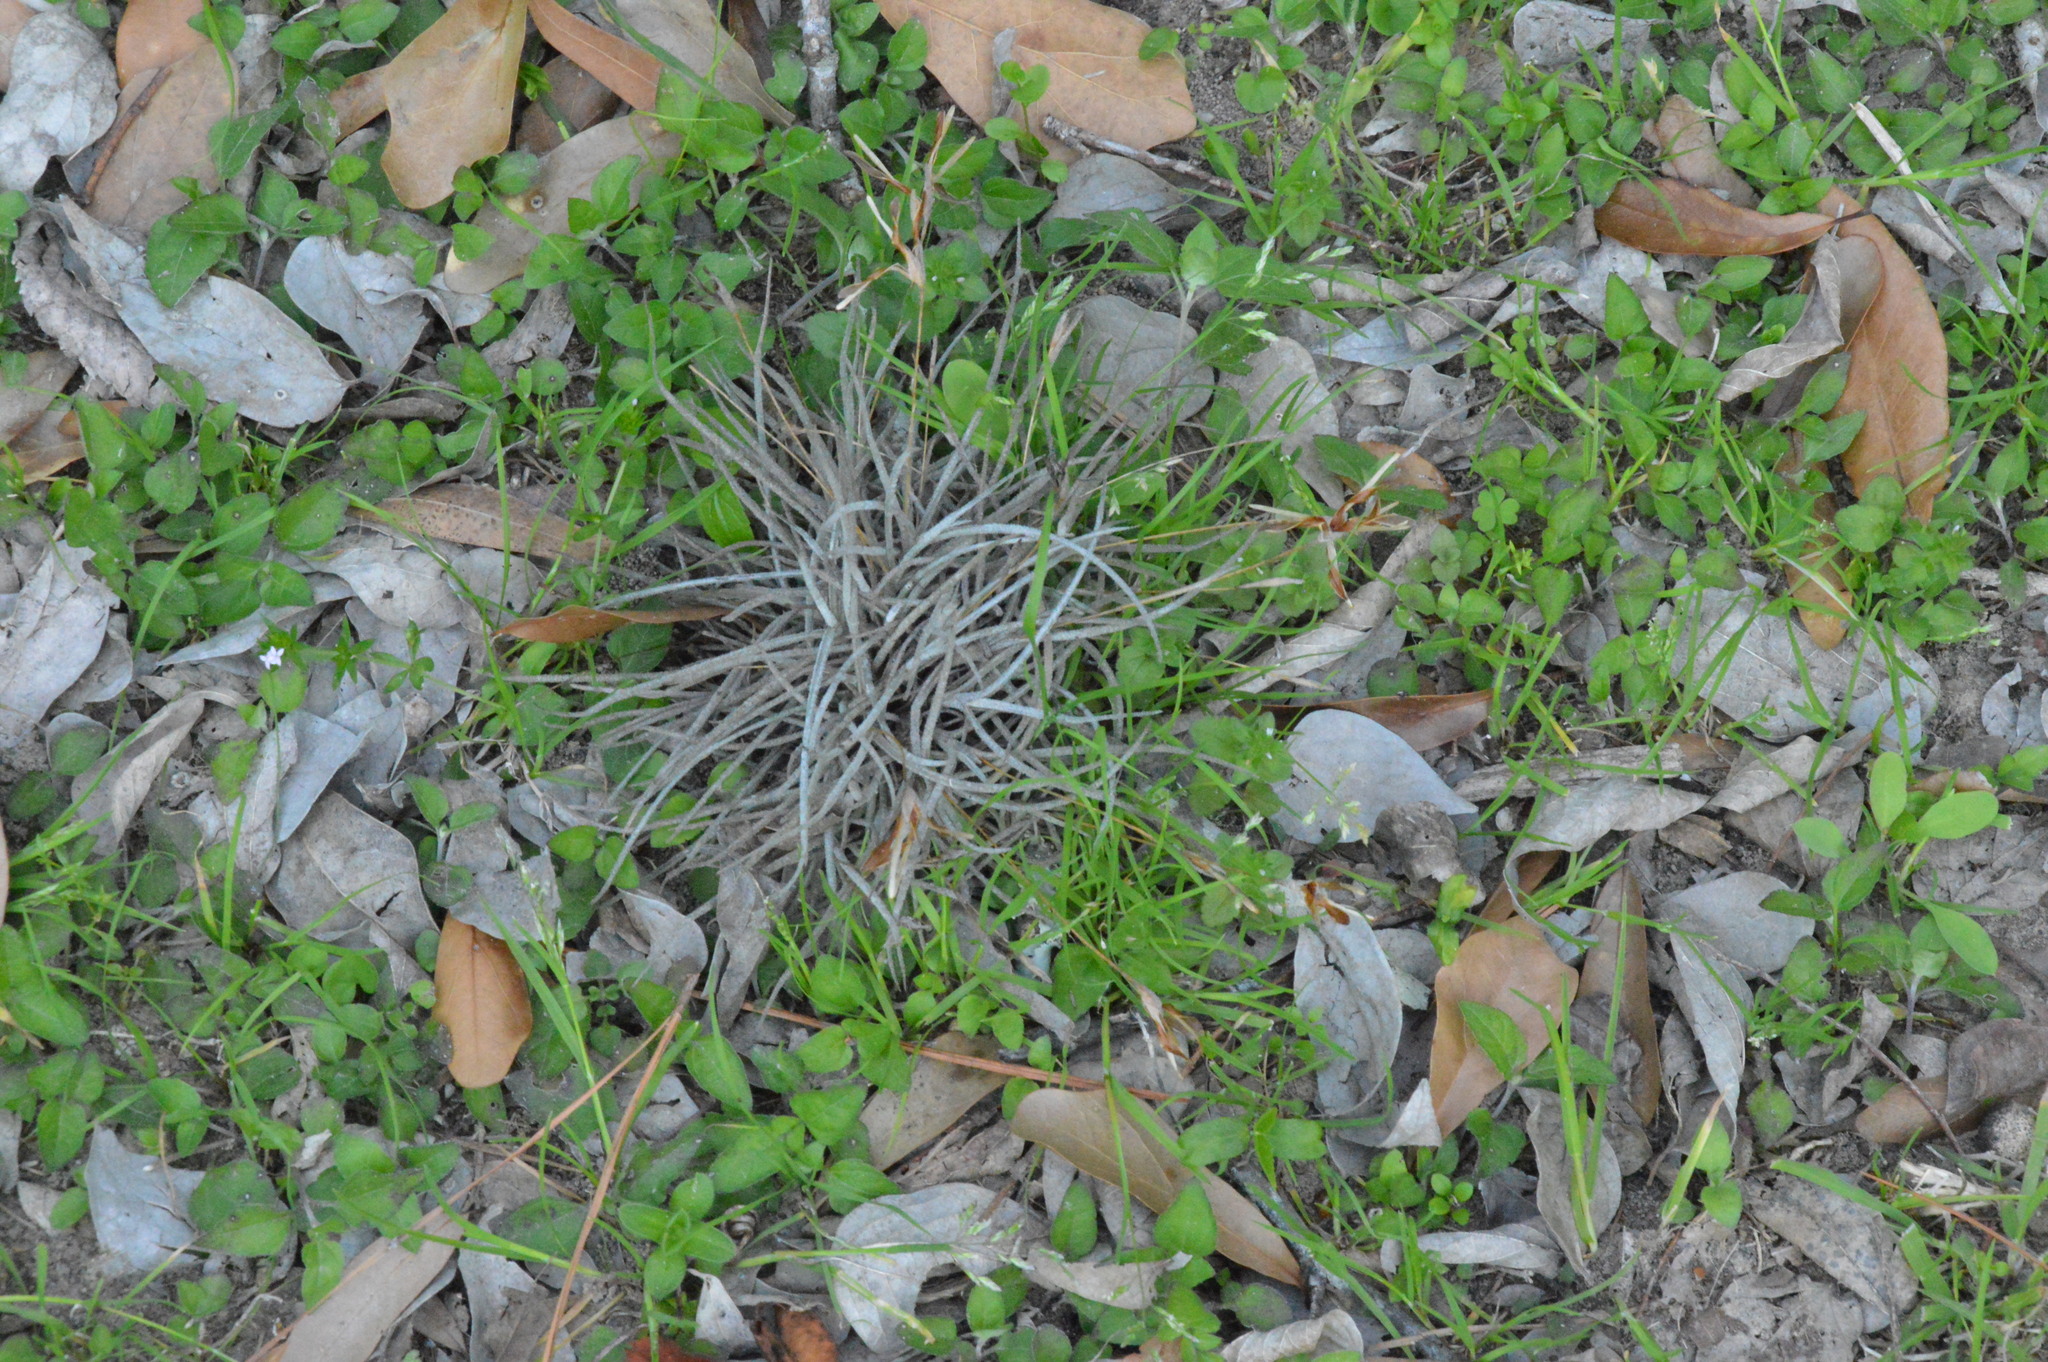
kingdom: Plantae
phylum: Tracheophyta
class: Liliopsida
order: Poales
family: Bromeliaceae
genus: Tillandsia
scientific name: Tillandsia recurvata
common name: Small ballmoss
